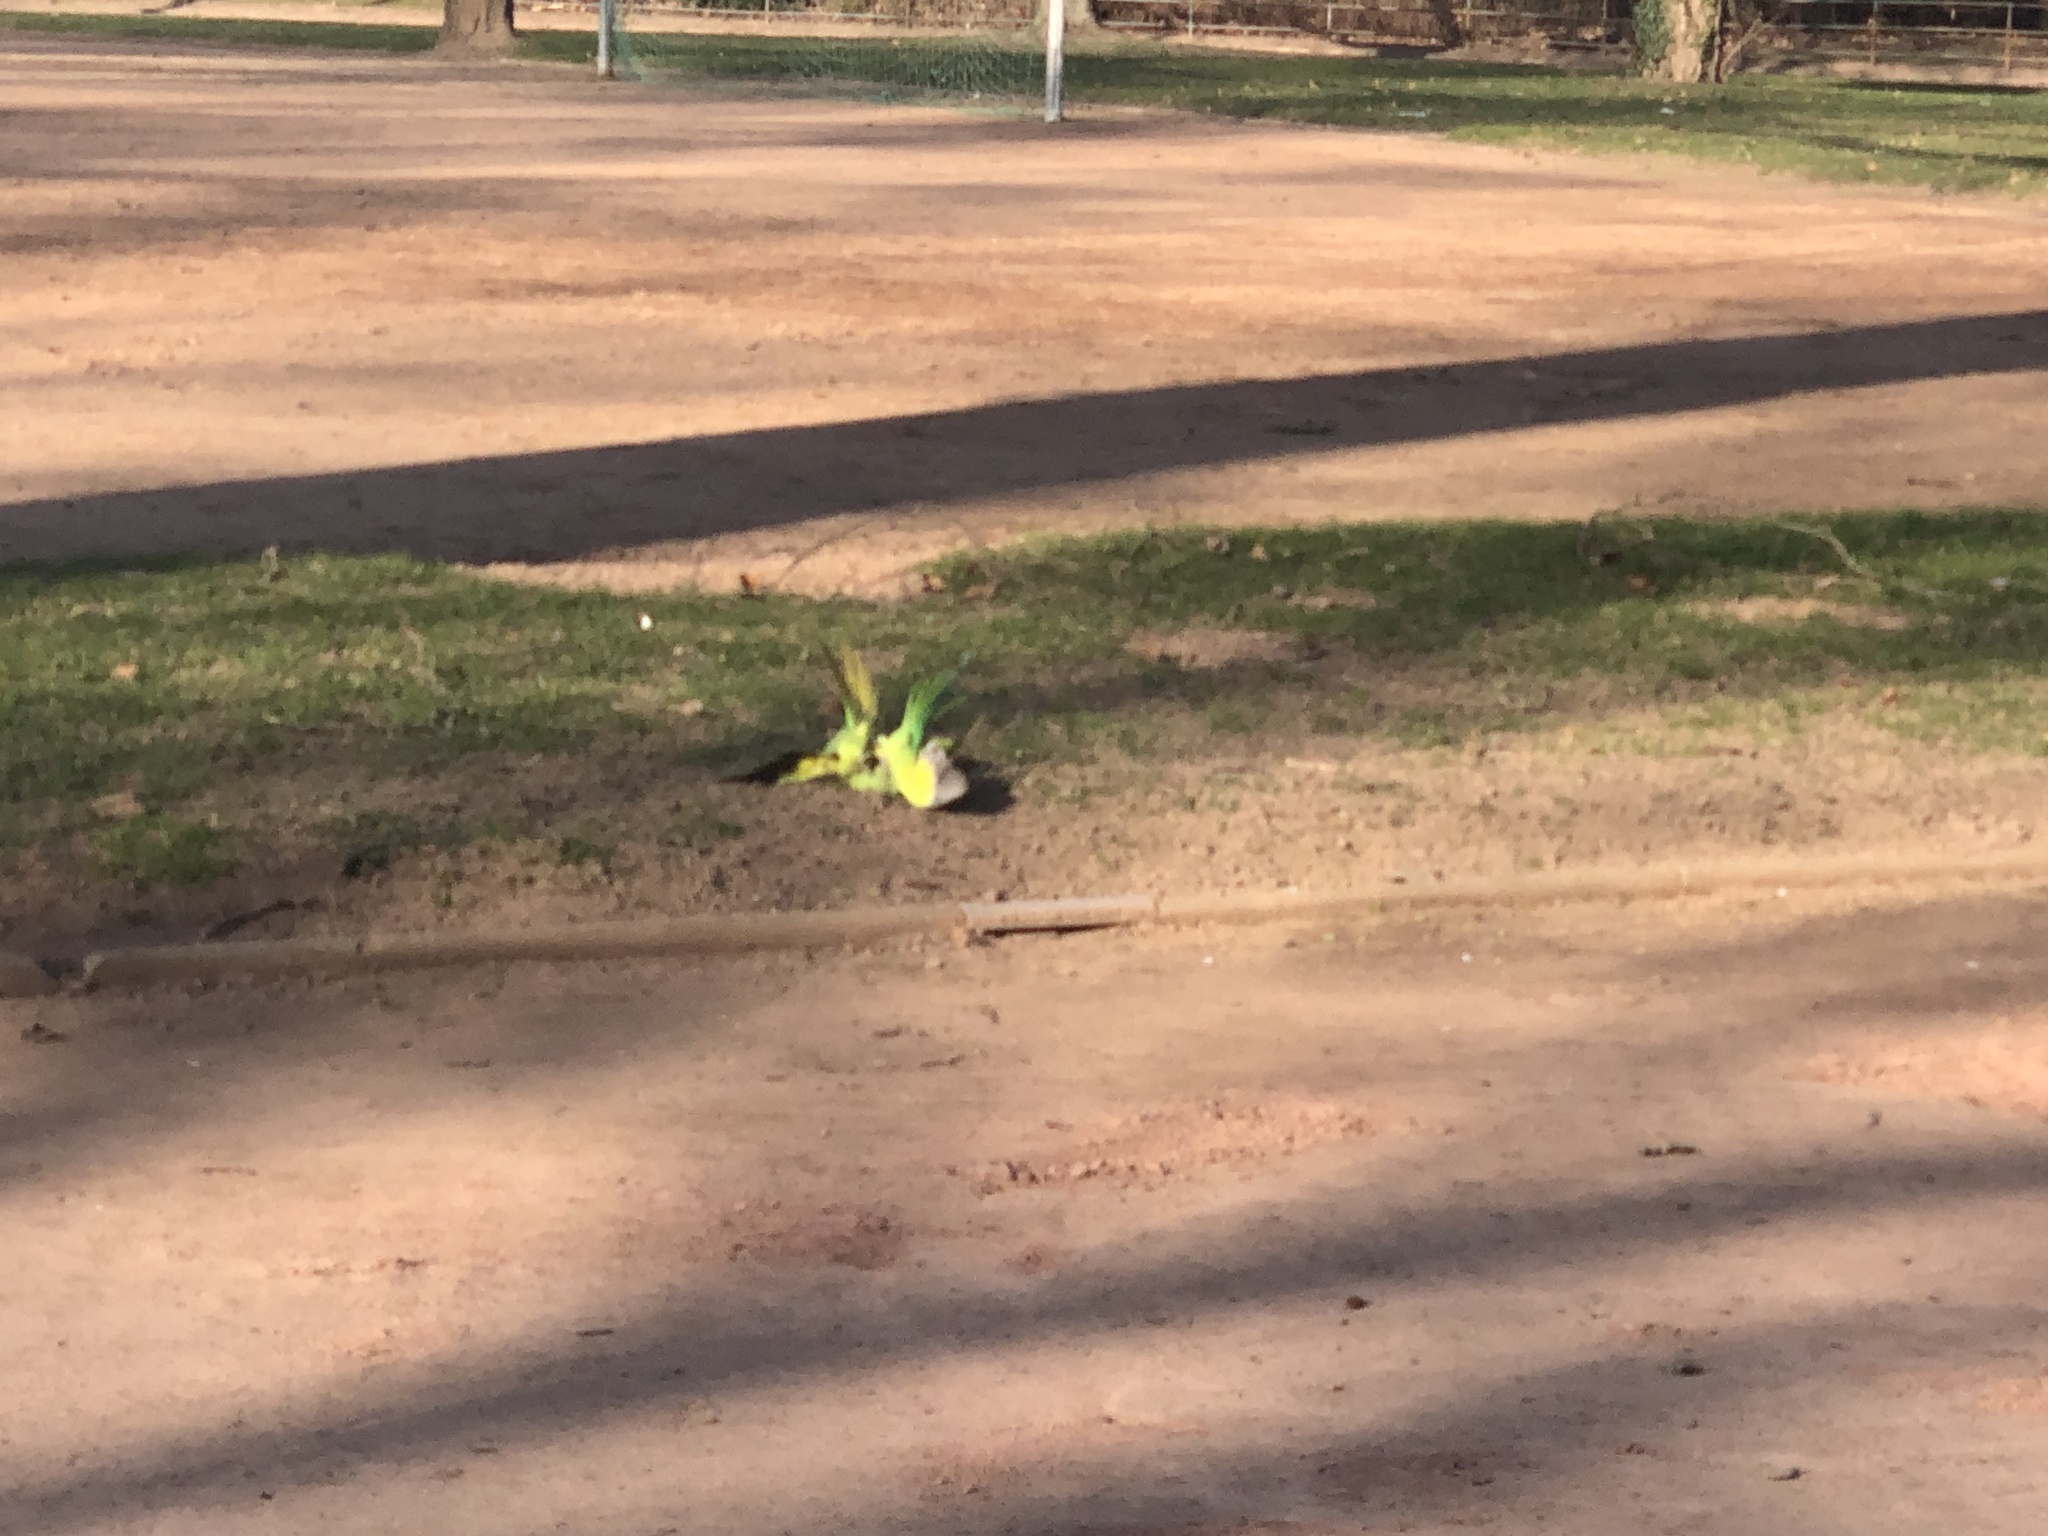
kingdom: Animalia
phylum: Chordata
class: Aves
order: Psittaciformes
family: Psittacidae
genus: Psittacula
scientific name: Psittacula krameri
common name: Rose-ringed parakeet
